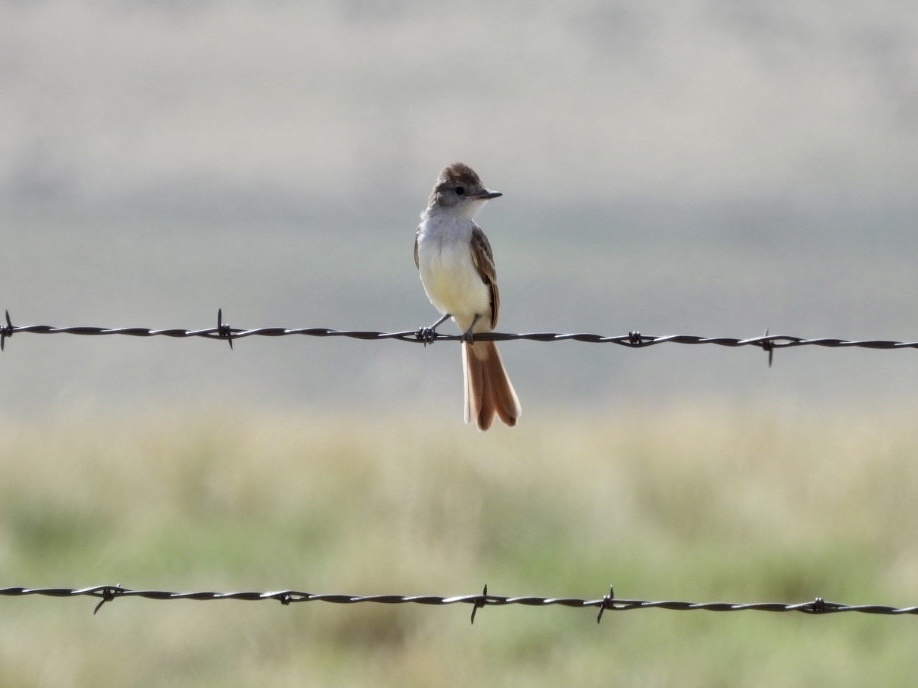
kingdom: Animalia
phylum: Chordata
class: Aves
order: Passeriformes
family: Tyrannidae
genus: Myiarchus
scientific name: Myiarchus cinerascens
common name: Ash-throated flycatcher
